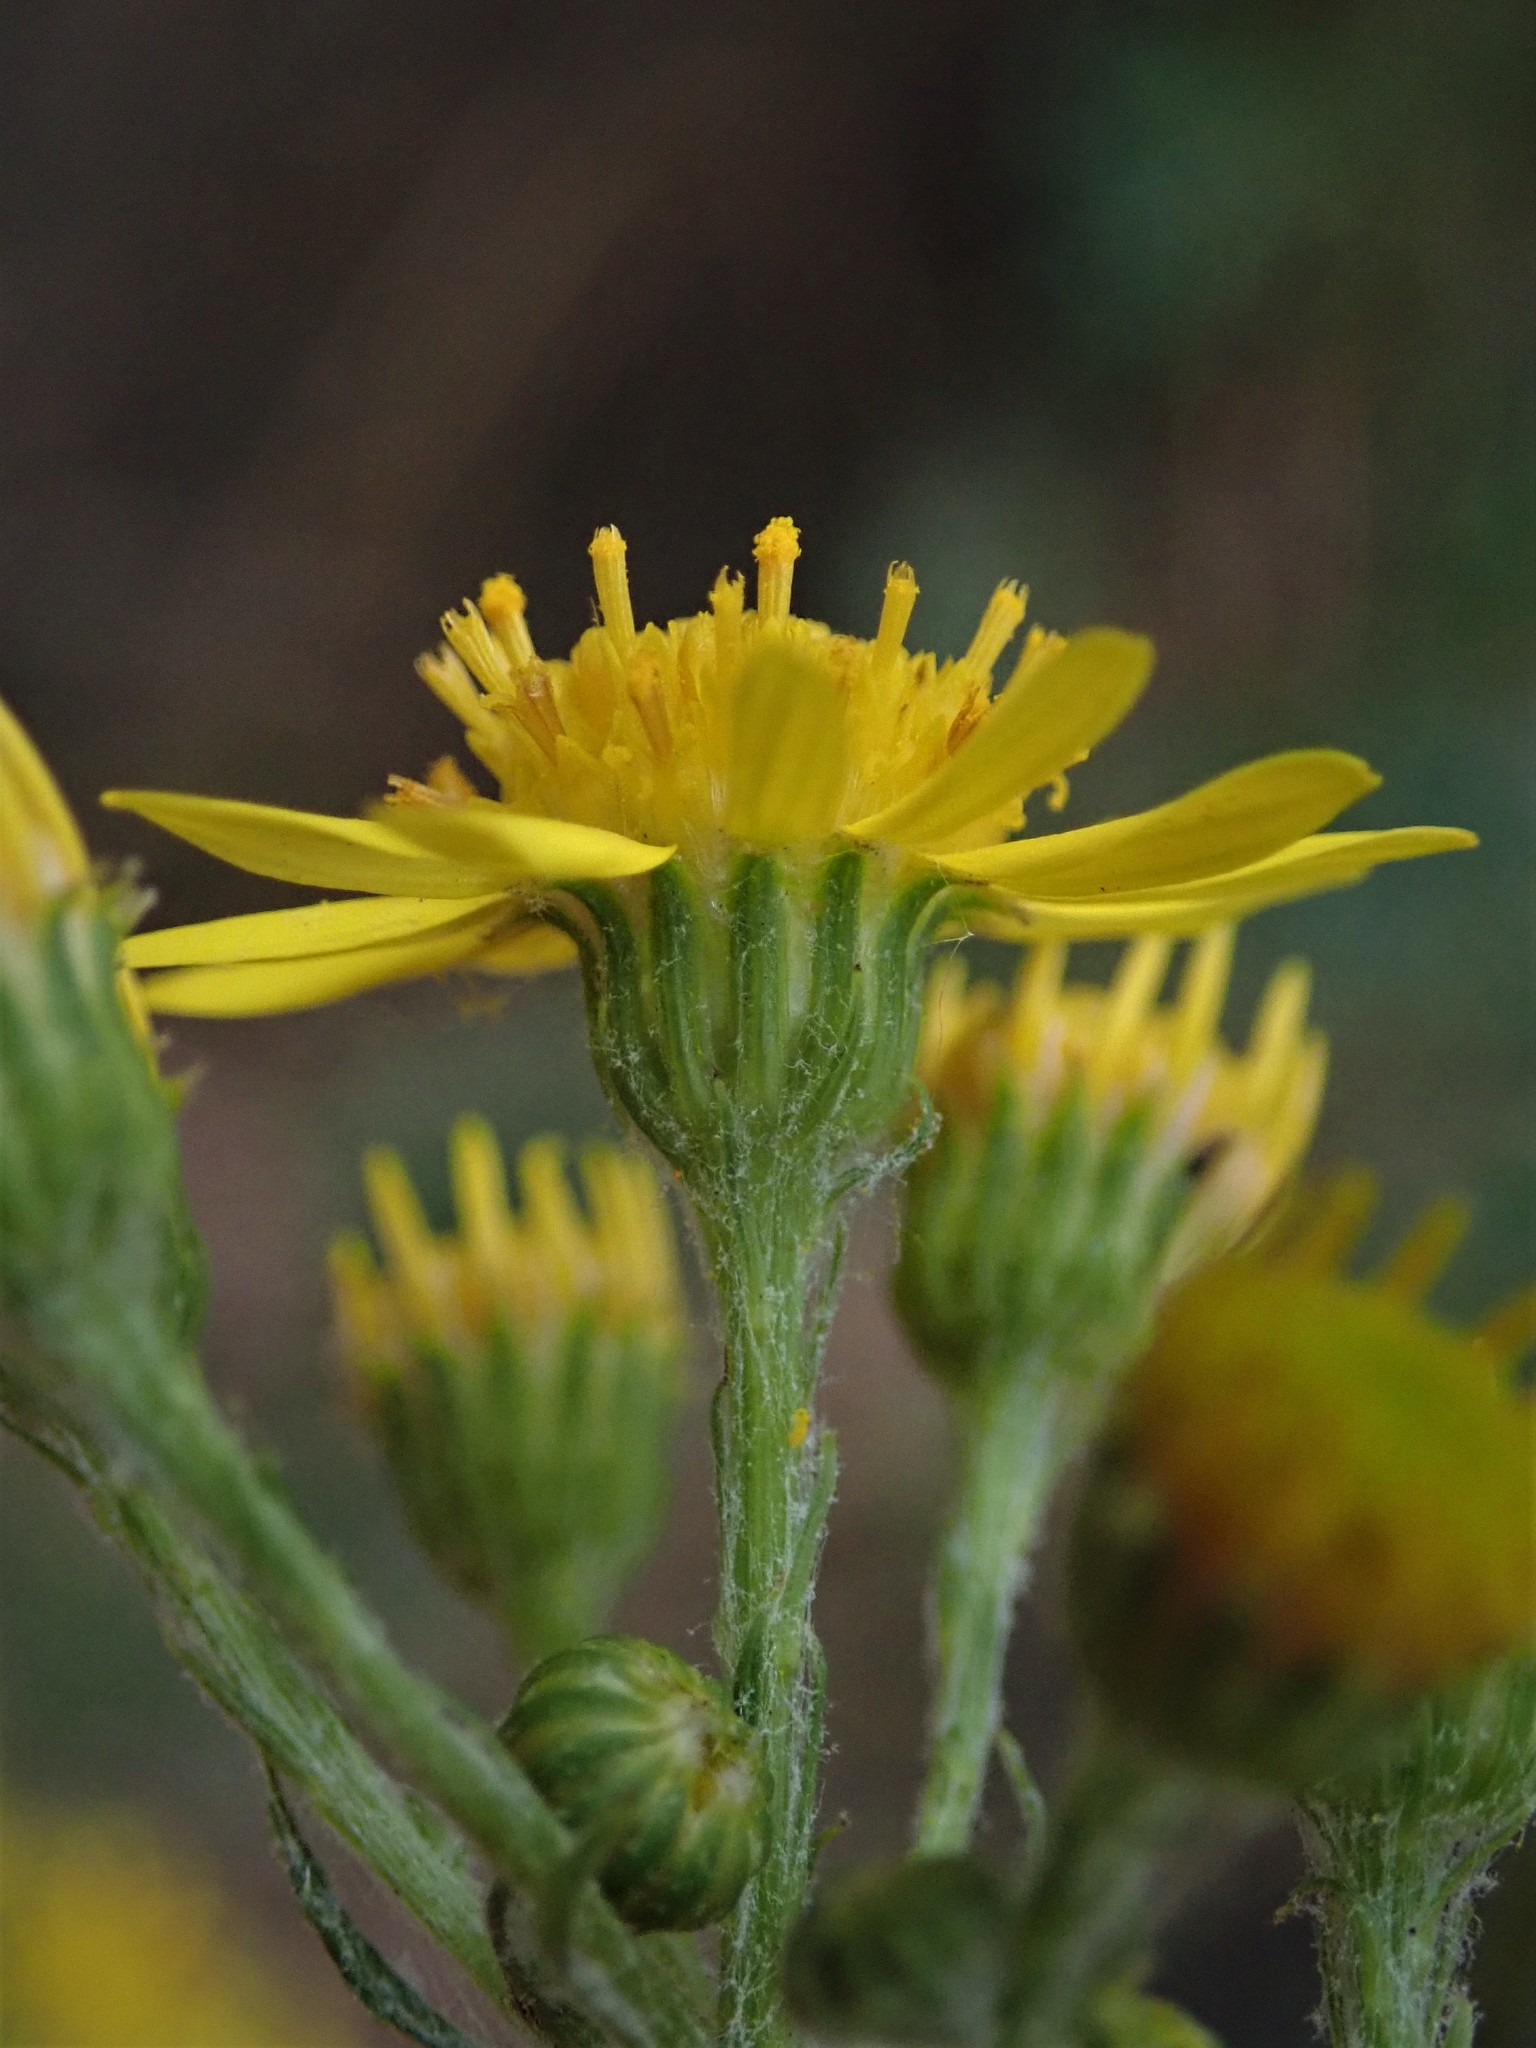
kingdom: Plantae
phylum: Tracheophyta
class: Magnoliopsida
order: Asterales
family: Asteraceae
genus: Jacobaea
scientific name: Jacobaea vulgaris
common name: Stinking willie
